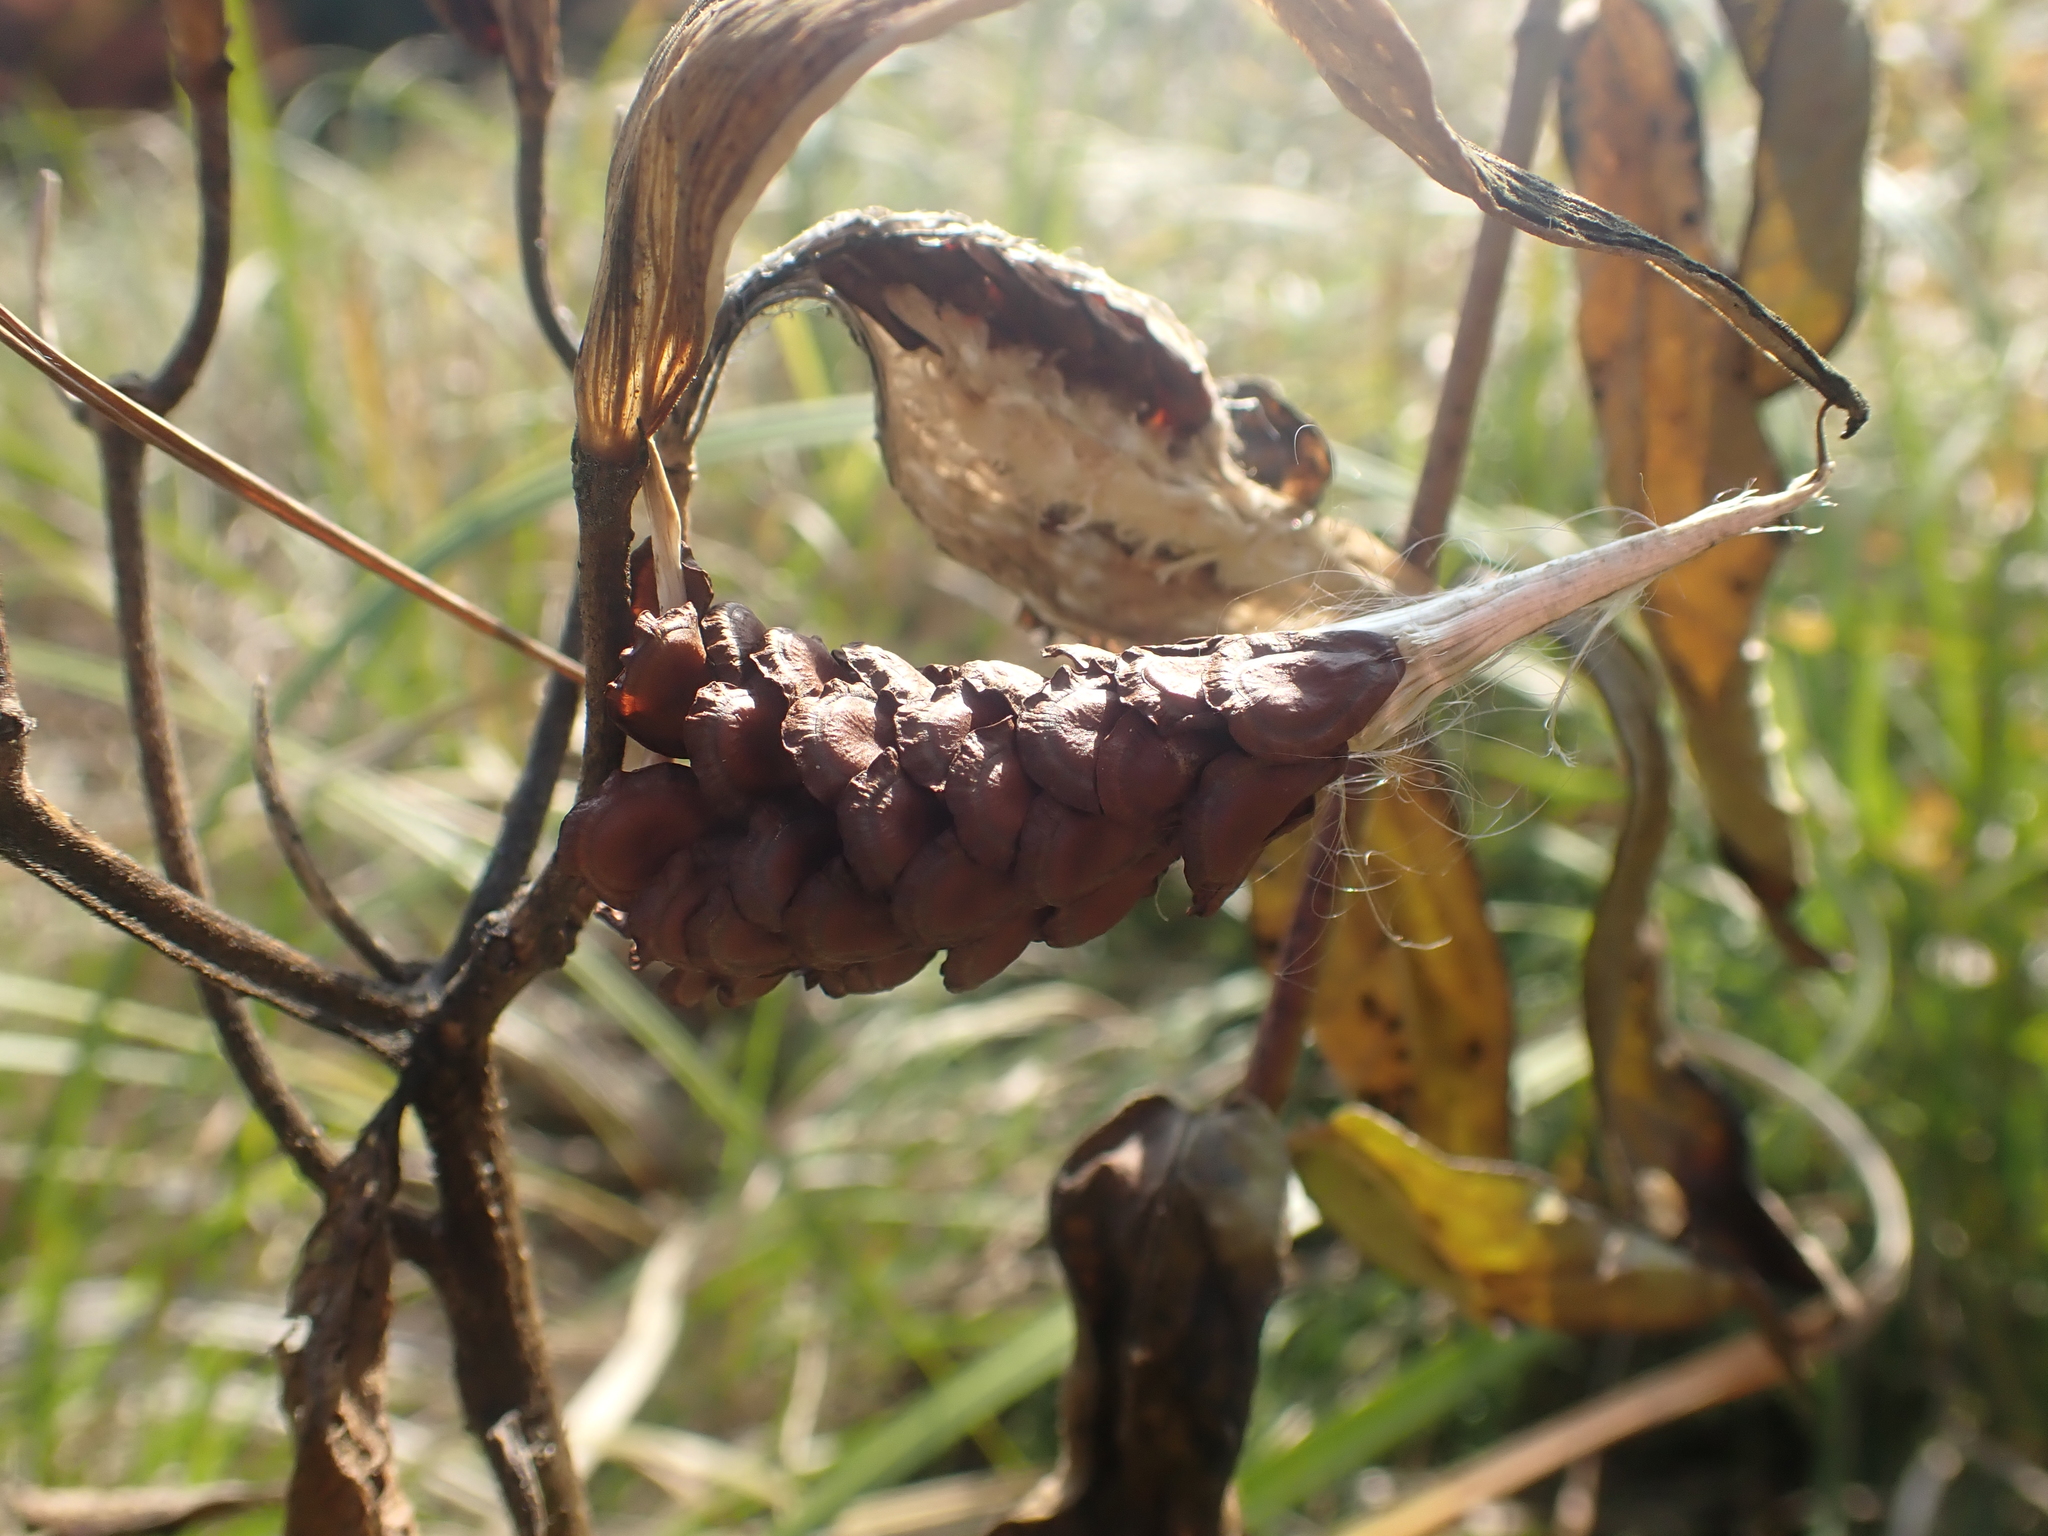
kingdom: Plantae
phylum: Tracheophyta
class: Magnoliopsida
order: Gentianales
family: Apocynaceae
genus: Asclepias
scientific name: Asclepias incarnata
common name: Swamp milkweed
